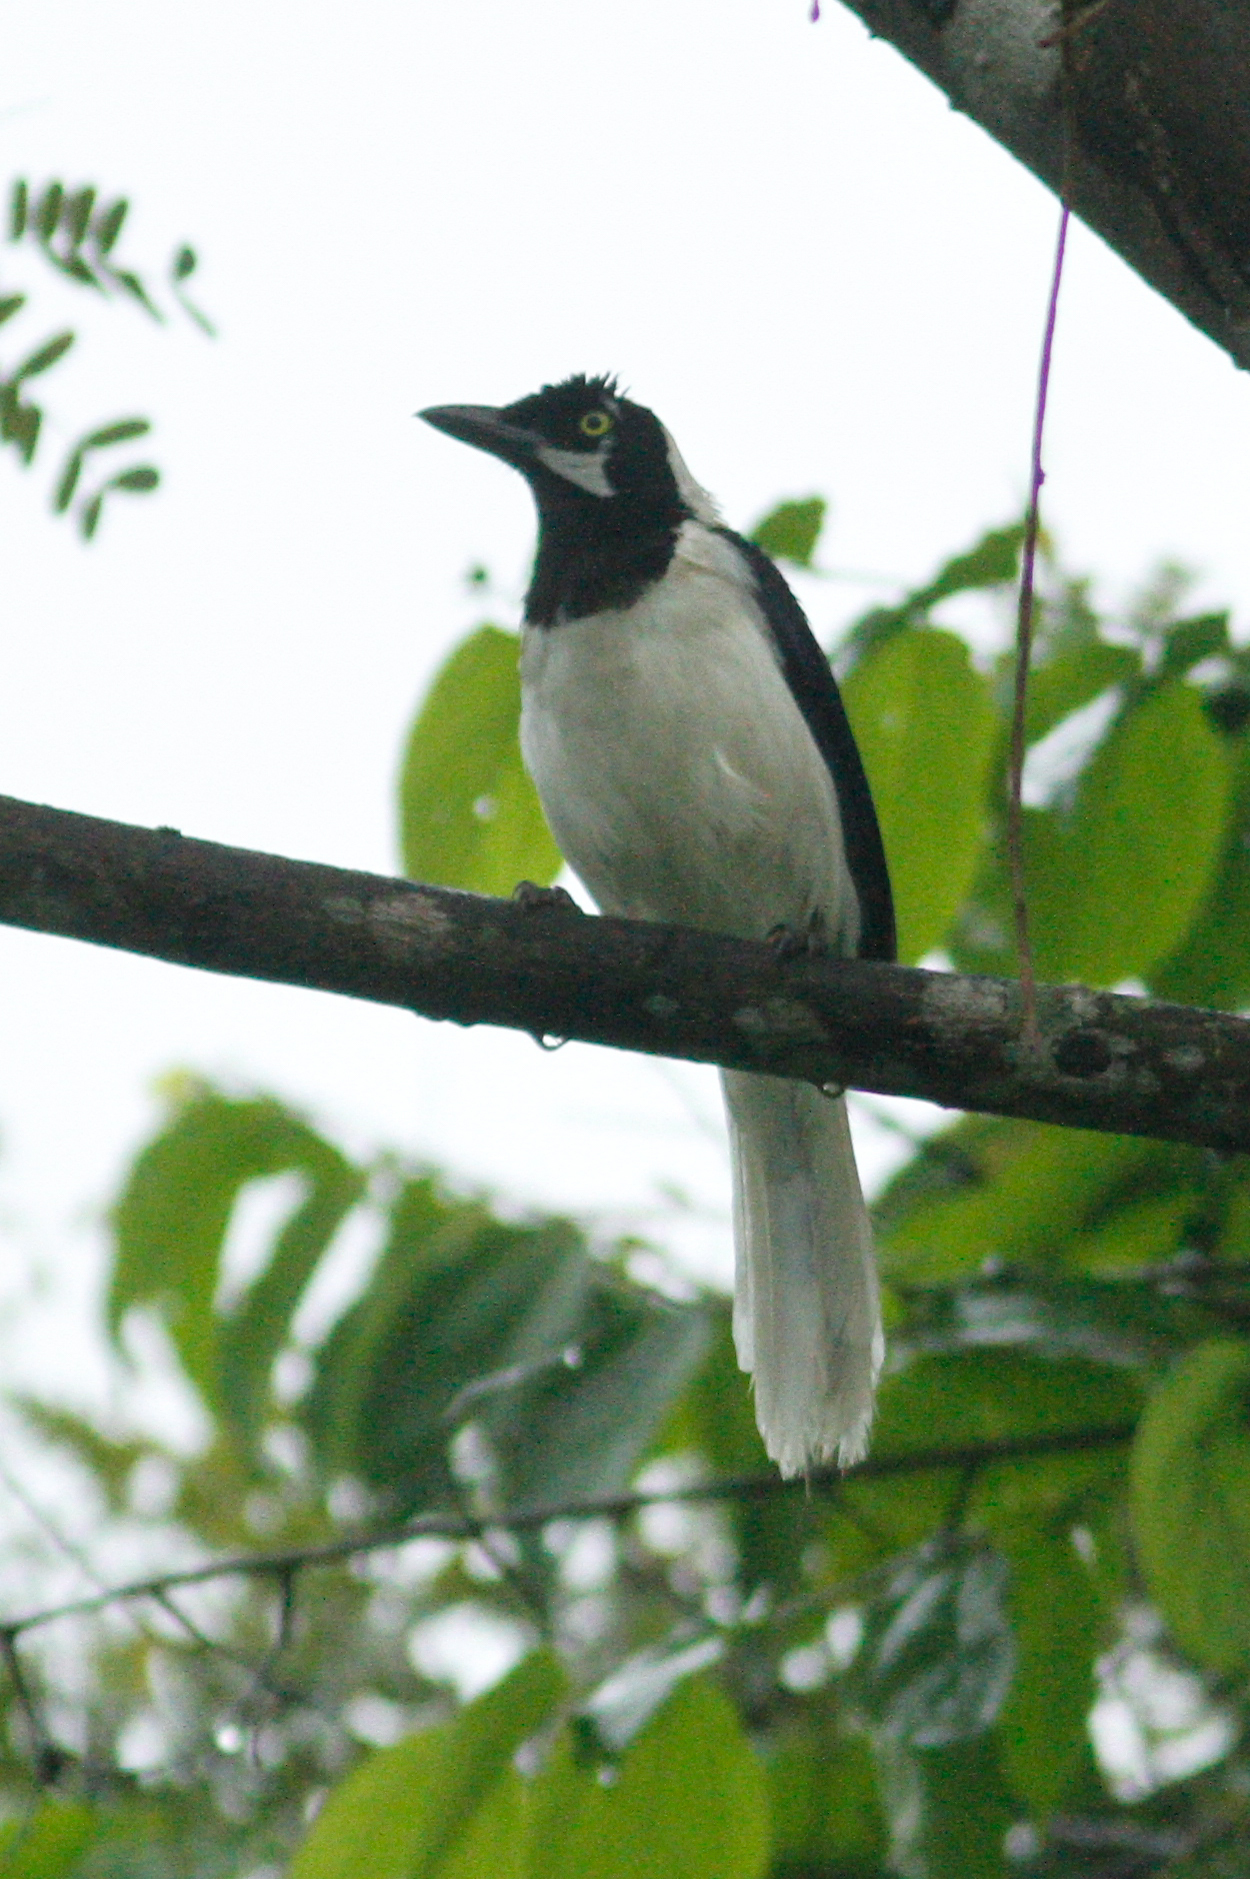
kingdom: Animalia
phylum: Chordata
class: Aves
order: Passeriformes
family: Corvidae
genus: Cyanocorax
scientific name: Cyanocorax mystacalis
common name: White-tailed jay
